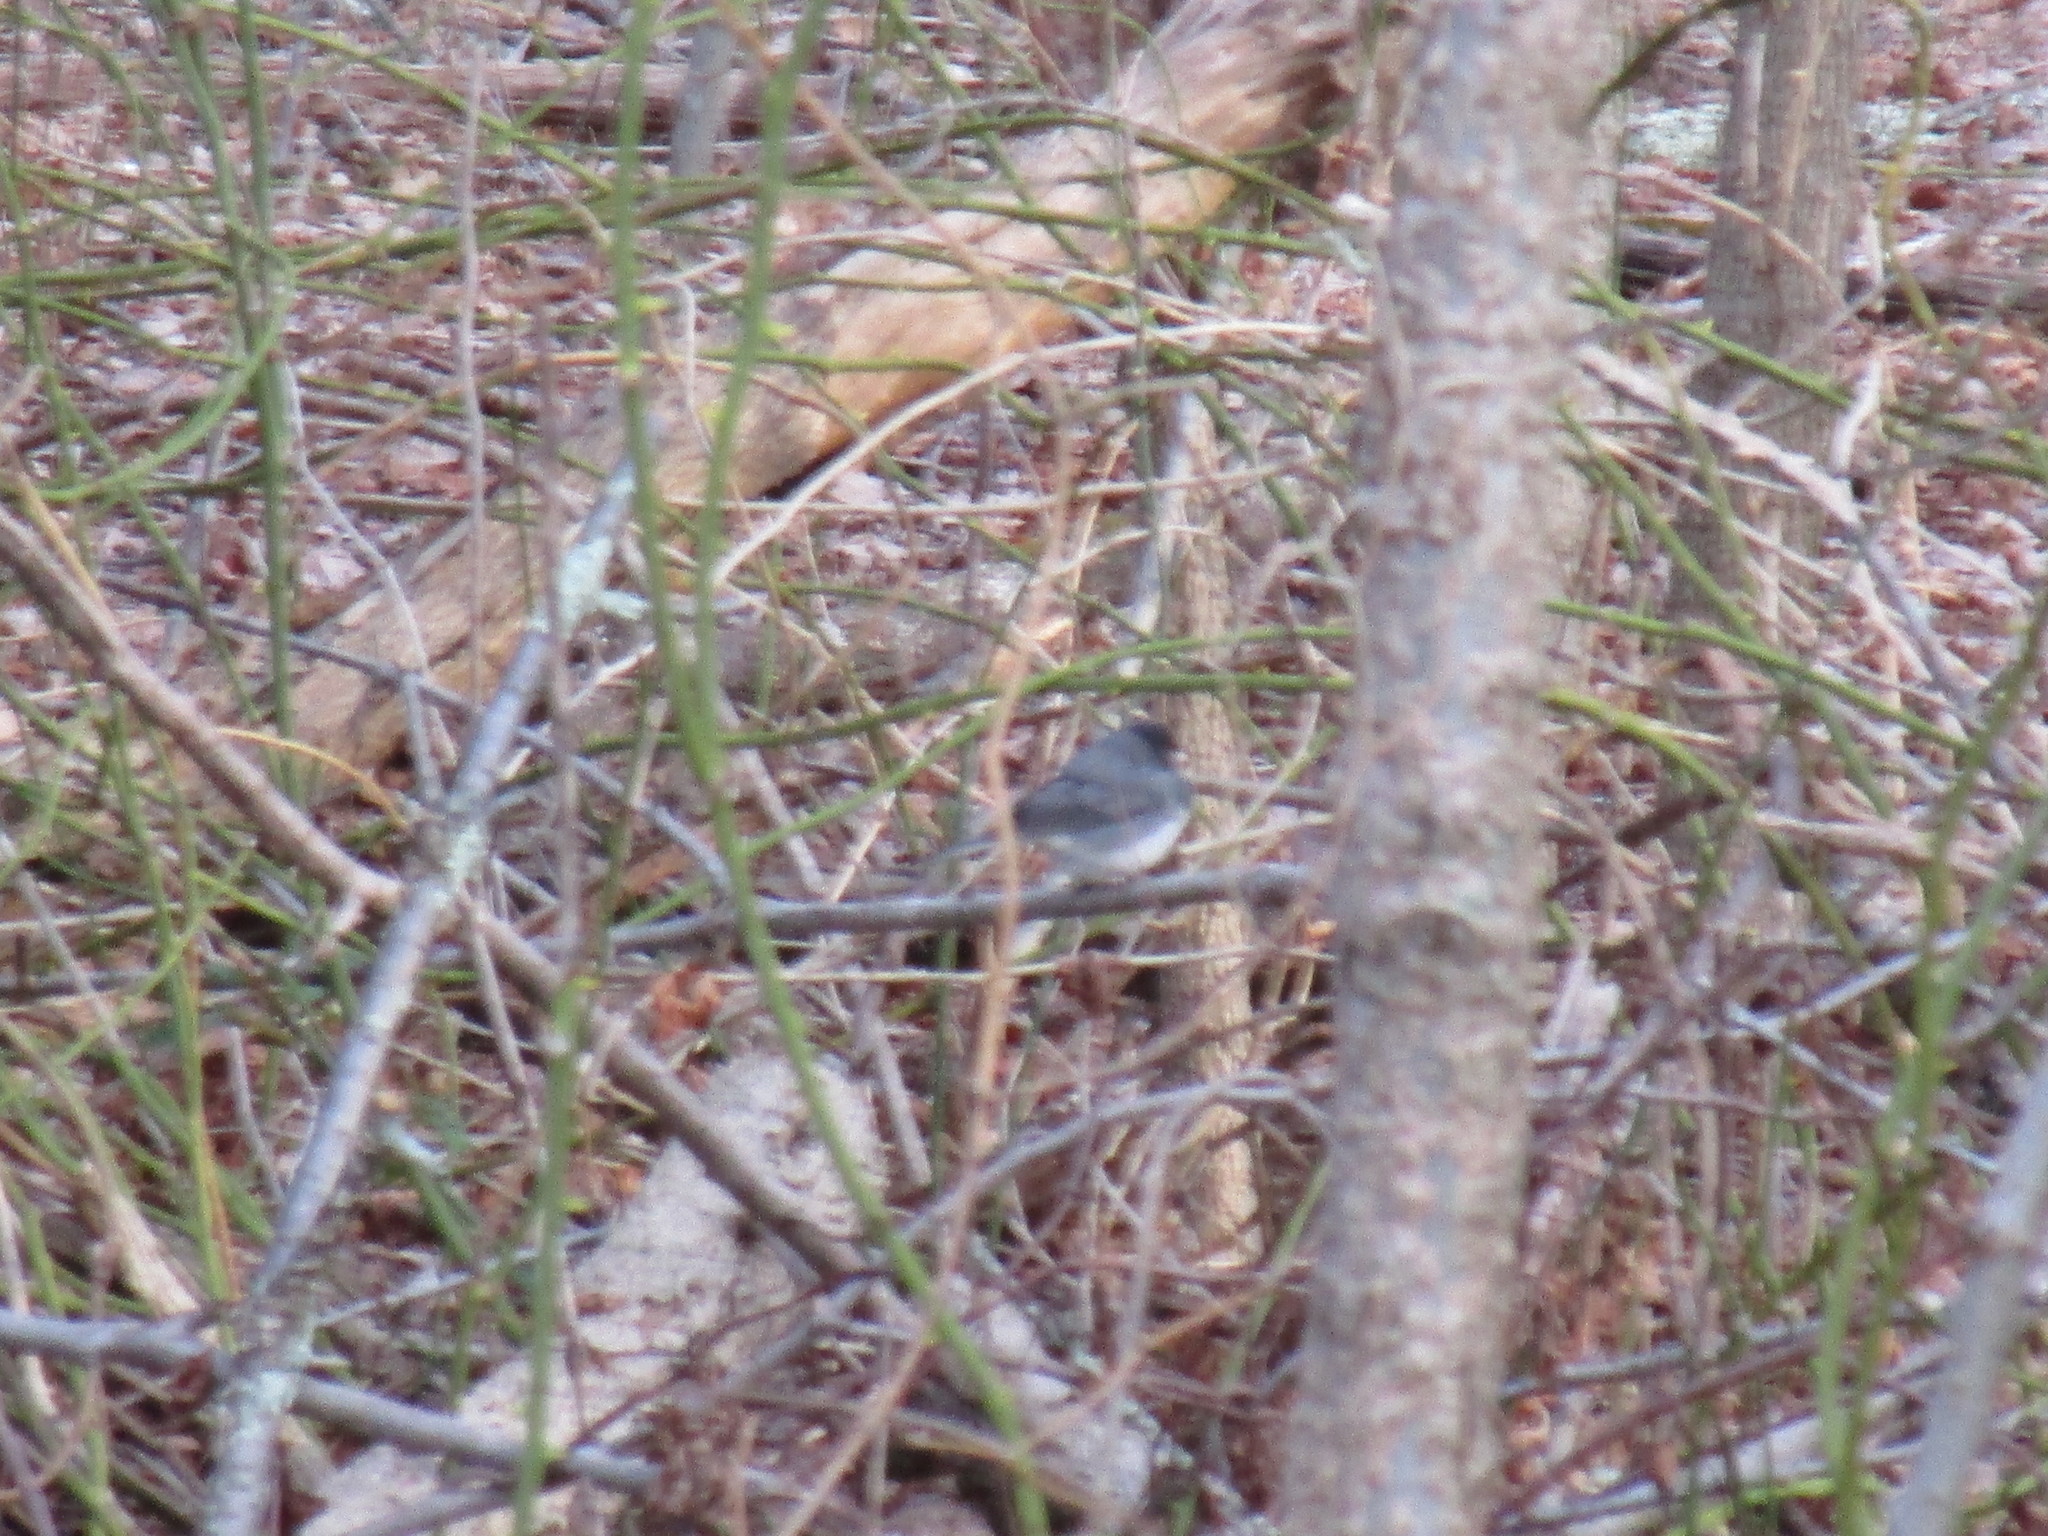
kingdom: Animalia
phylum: Chordata
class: Aves
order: Passeriformes
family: Passerellidae
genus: Junco
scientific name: Junco hyemalis
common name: Dark-eyed junco
